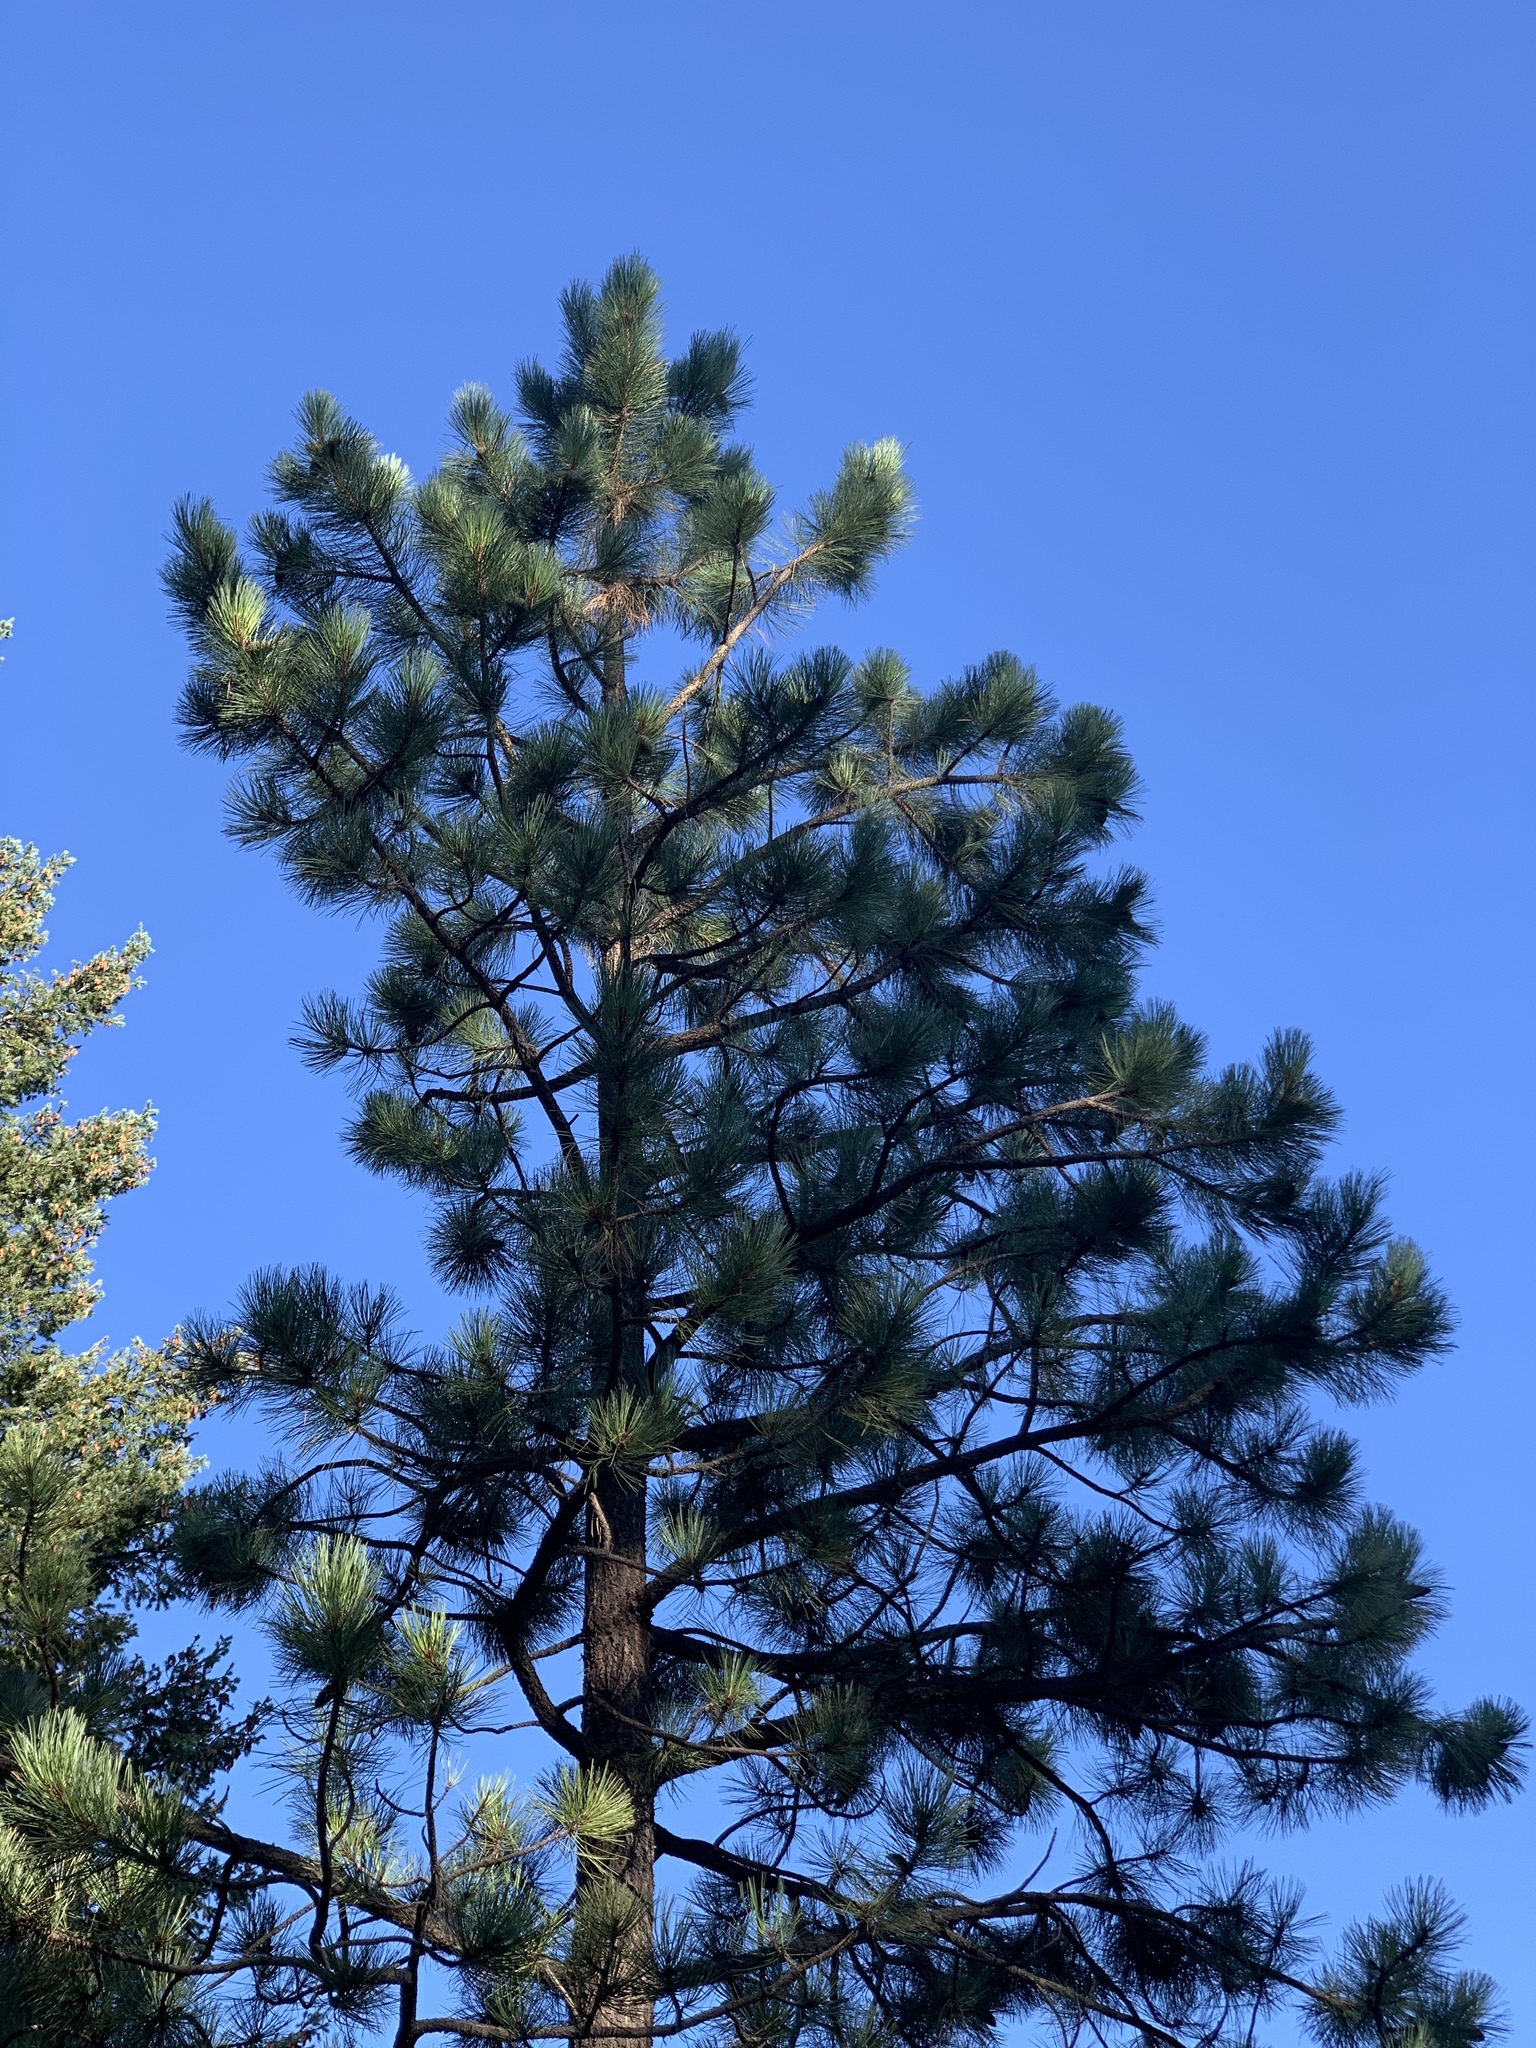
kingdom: Plantae
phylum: Tracheophyta
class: Pinopsida
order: Pinales
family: Pinaceae
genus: Pinus
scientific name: Pinus ponderosa
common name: Western yellow-pine
